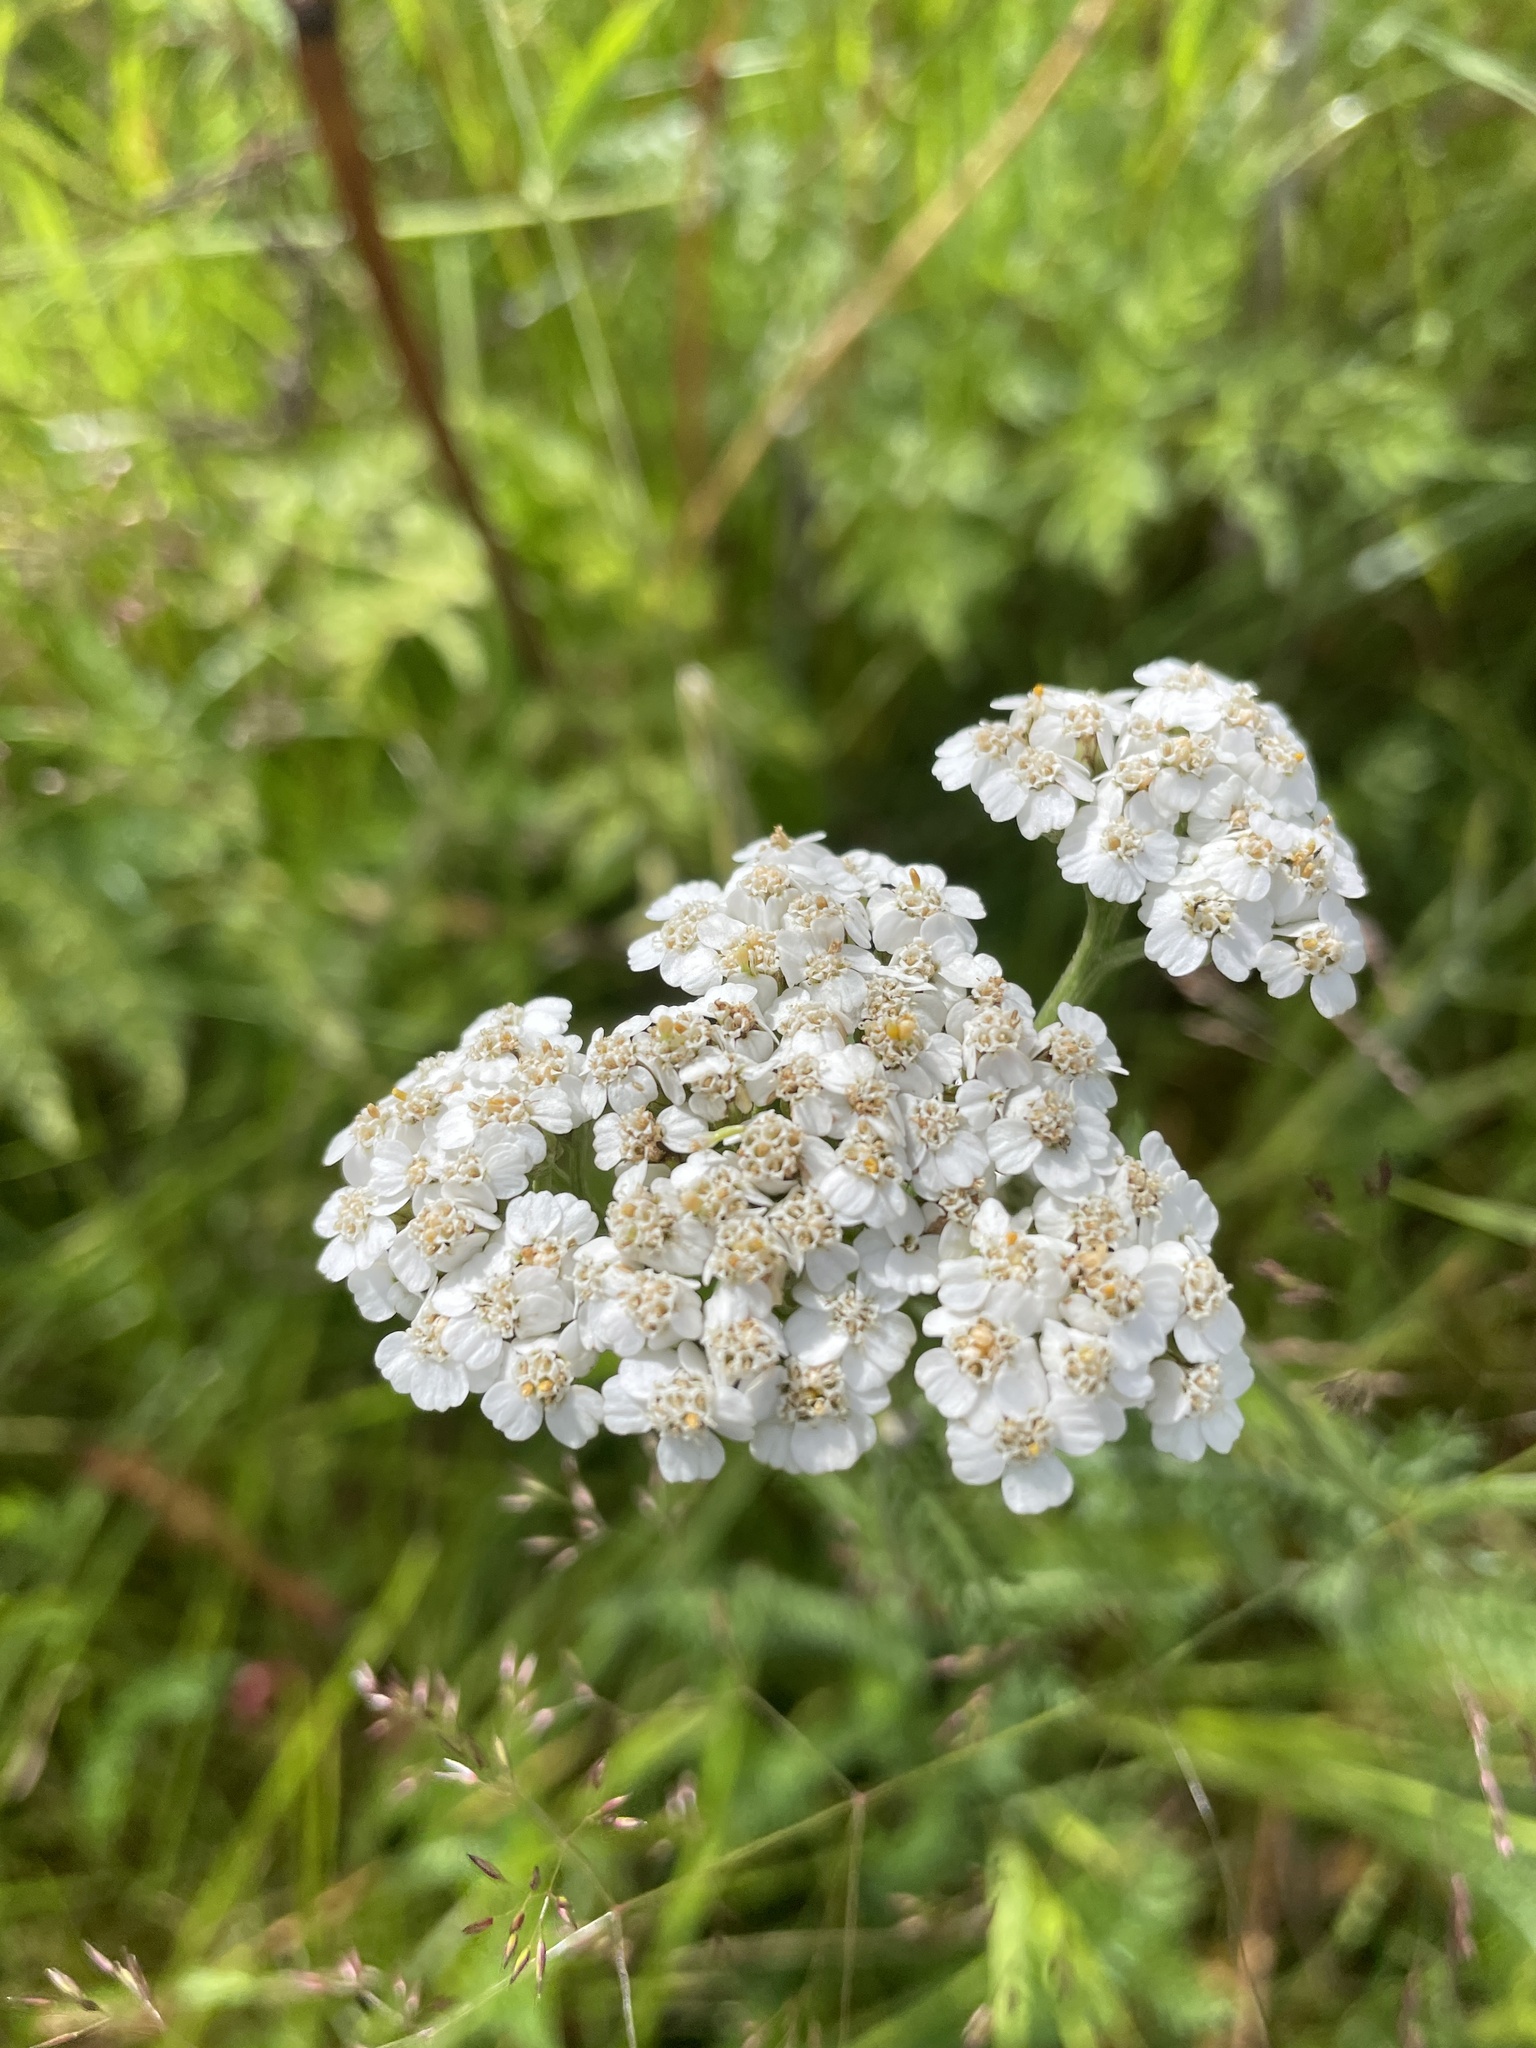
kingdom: Plantae
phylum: Tracheophyta
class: Magnoliopsida
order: Asterales
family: Asteraceae
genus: Achillea
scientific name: Achillea millefolium
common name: Yarrow
